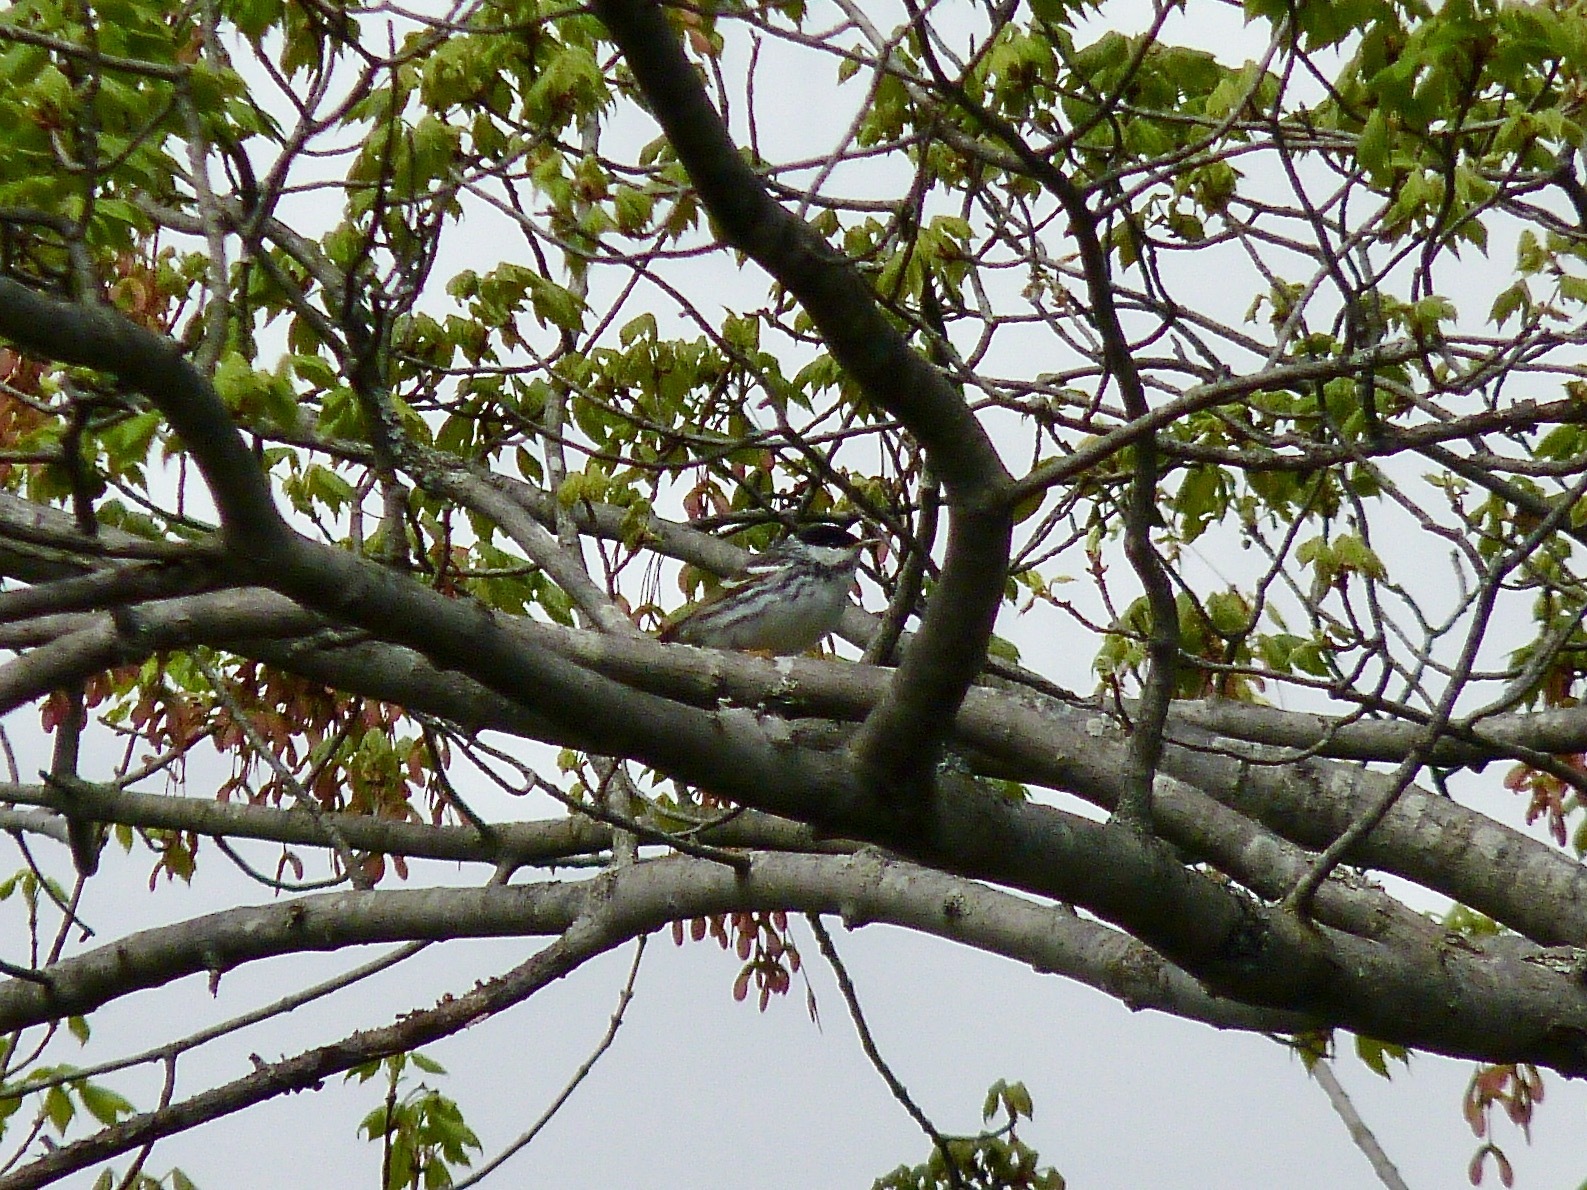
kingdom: Animalia
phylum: Chordata
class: Aves
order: Passeriformes
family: Parulidae
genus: Setophaga
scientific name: Setophaga striata
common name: Blackpoll warbler
